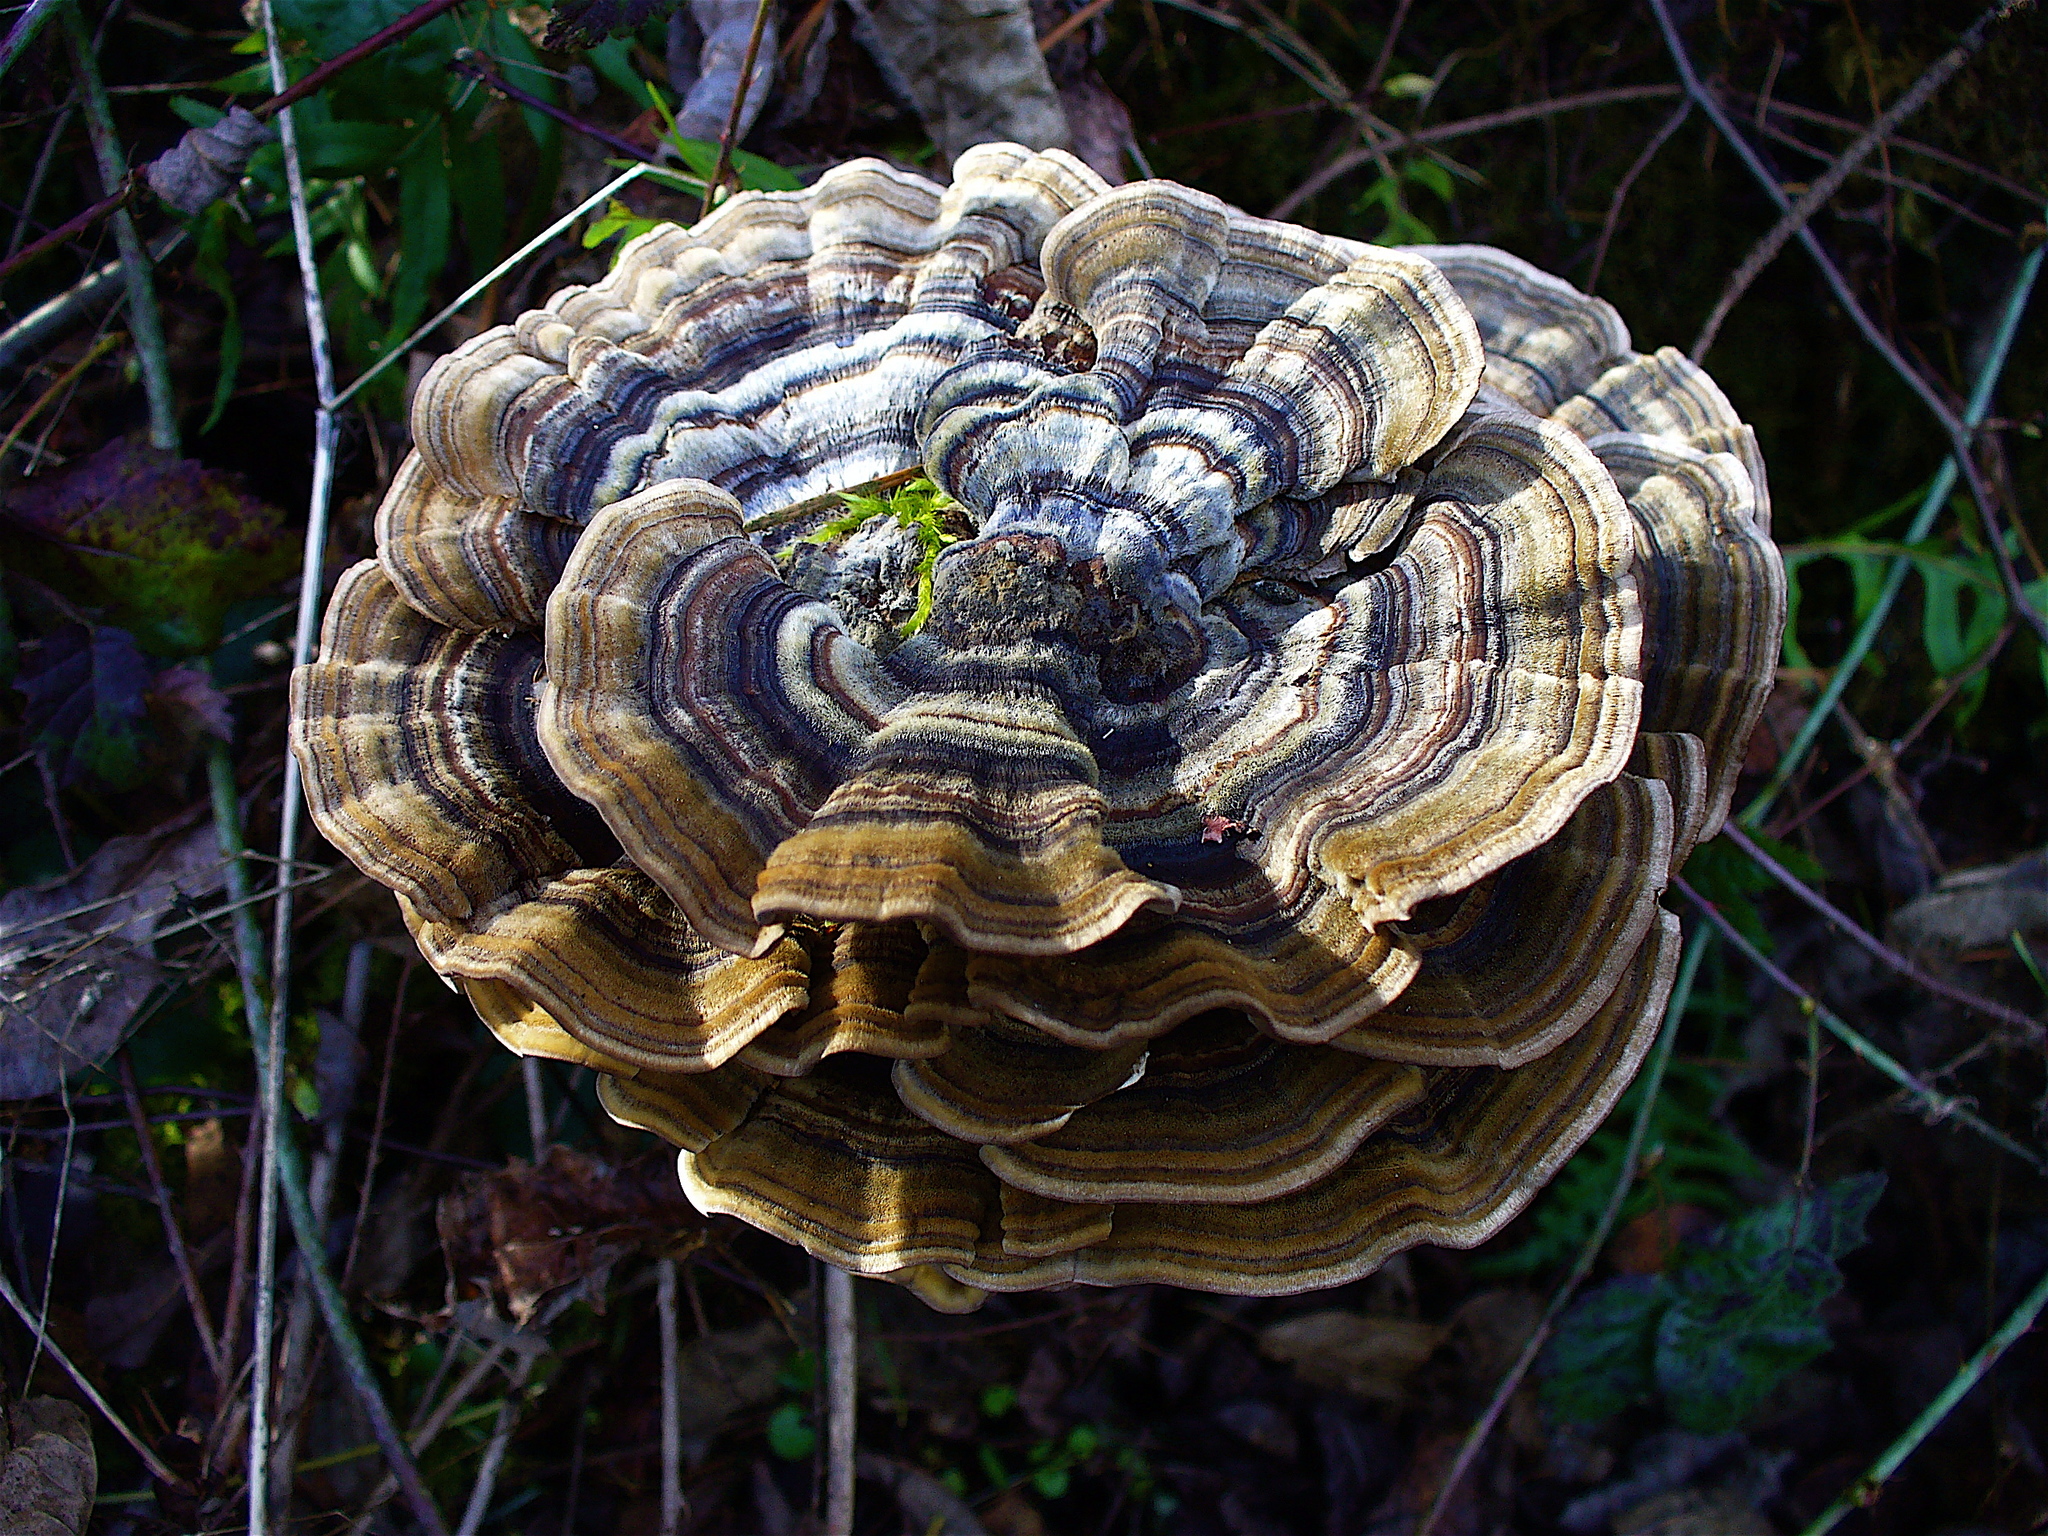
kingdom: Fungi
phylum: Basidiomycota
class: Agaricomycetes
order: Polyporales
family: Polyporaceae
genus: Trametes
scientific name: Trametes versicolor
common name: Turkeytail
